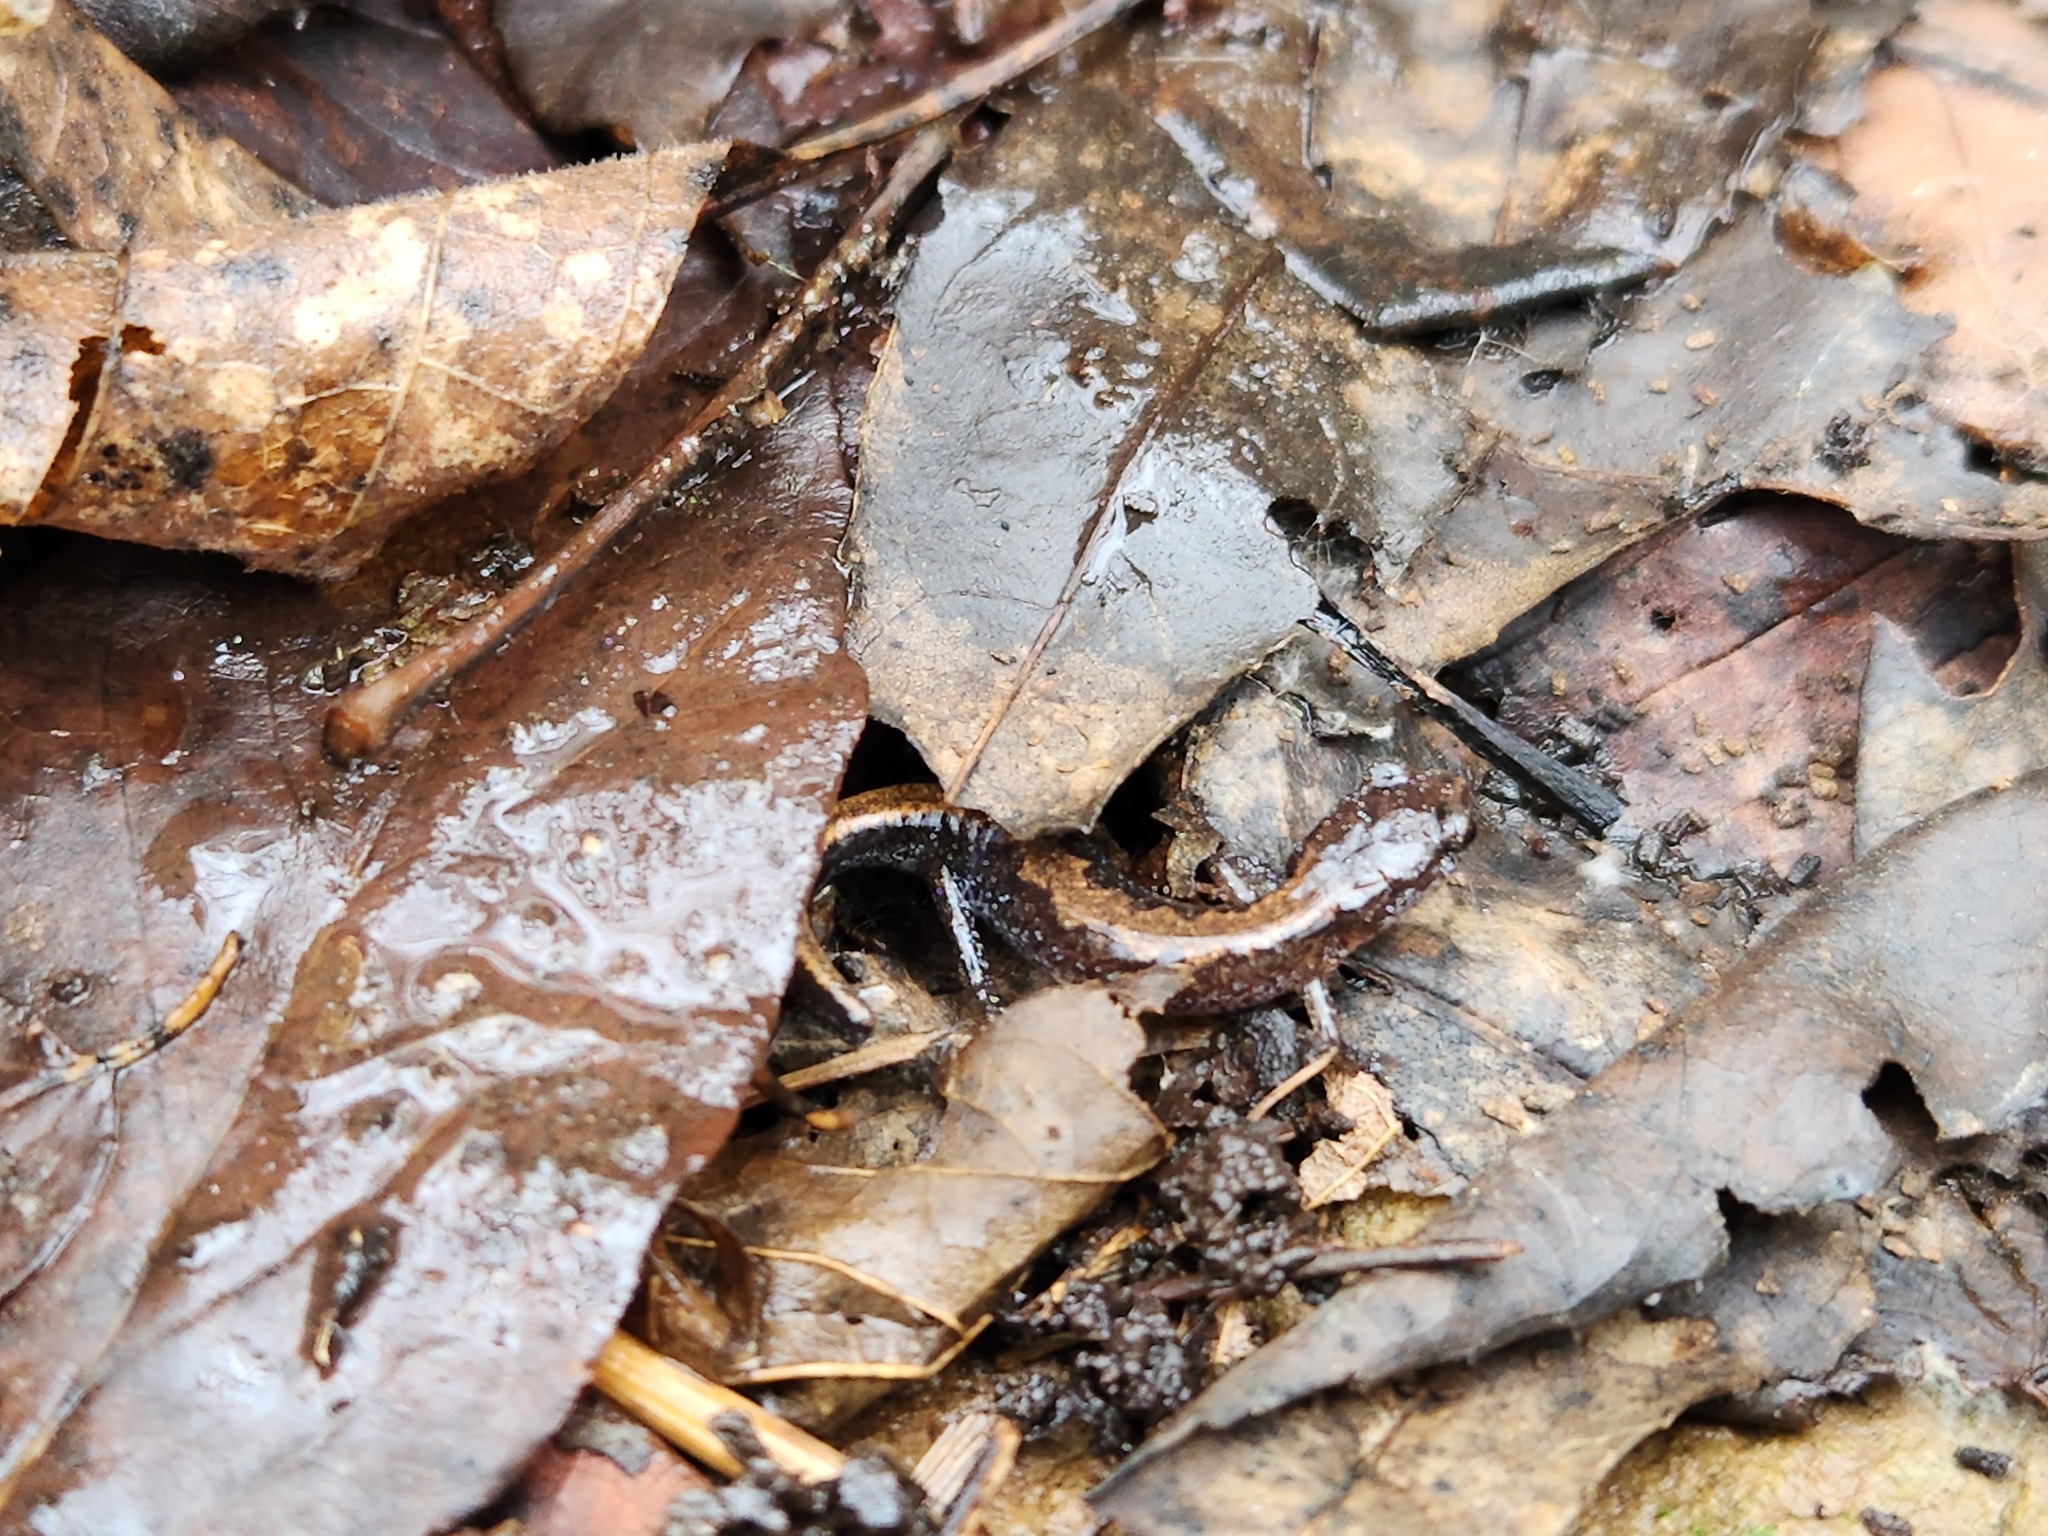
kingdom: Animalia
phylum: Chordata
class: Amphibia
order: Caudata
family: Plethodontidae
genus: Plethodon
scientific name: Plethodon dorsalis
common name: Northern zigzag salamander
